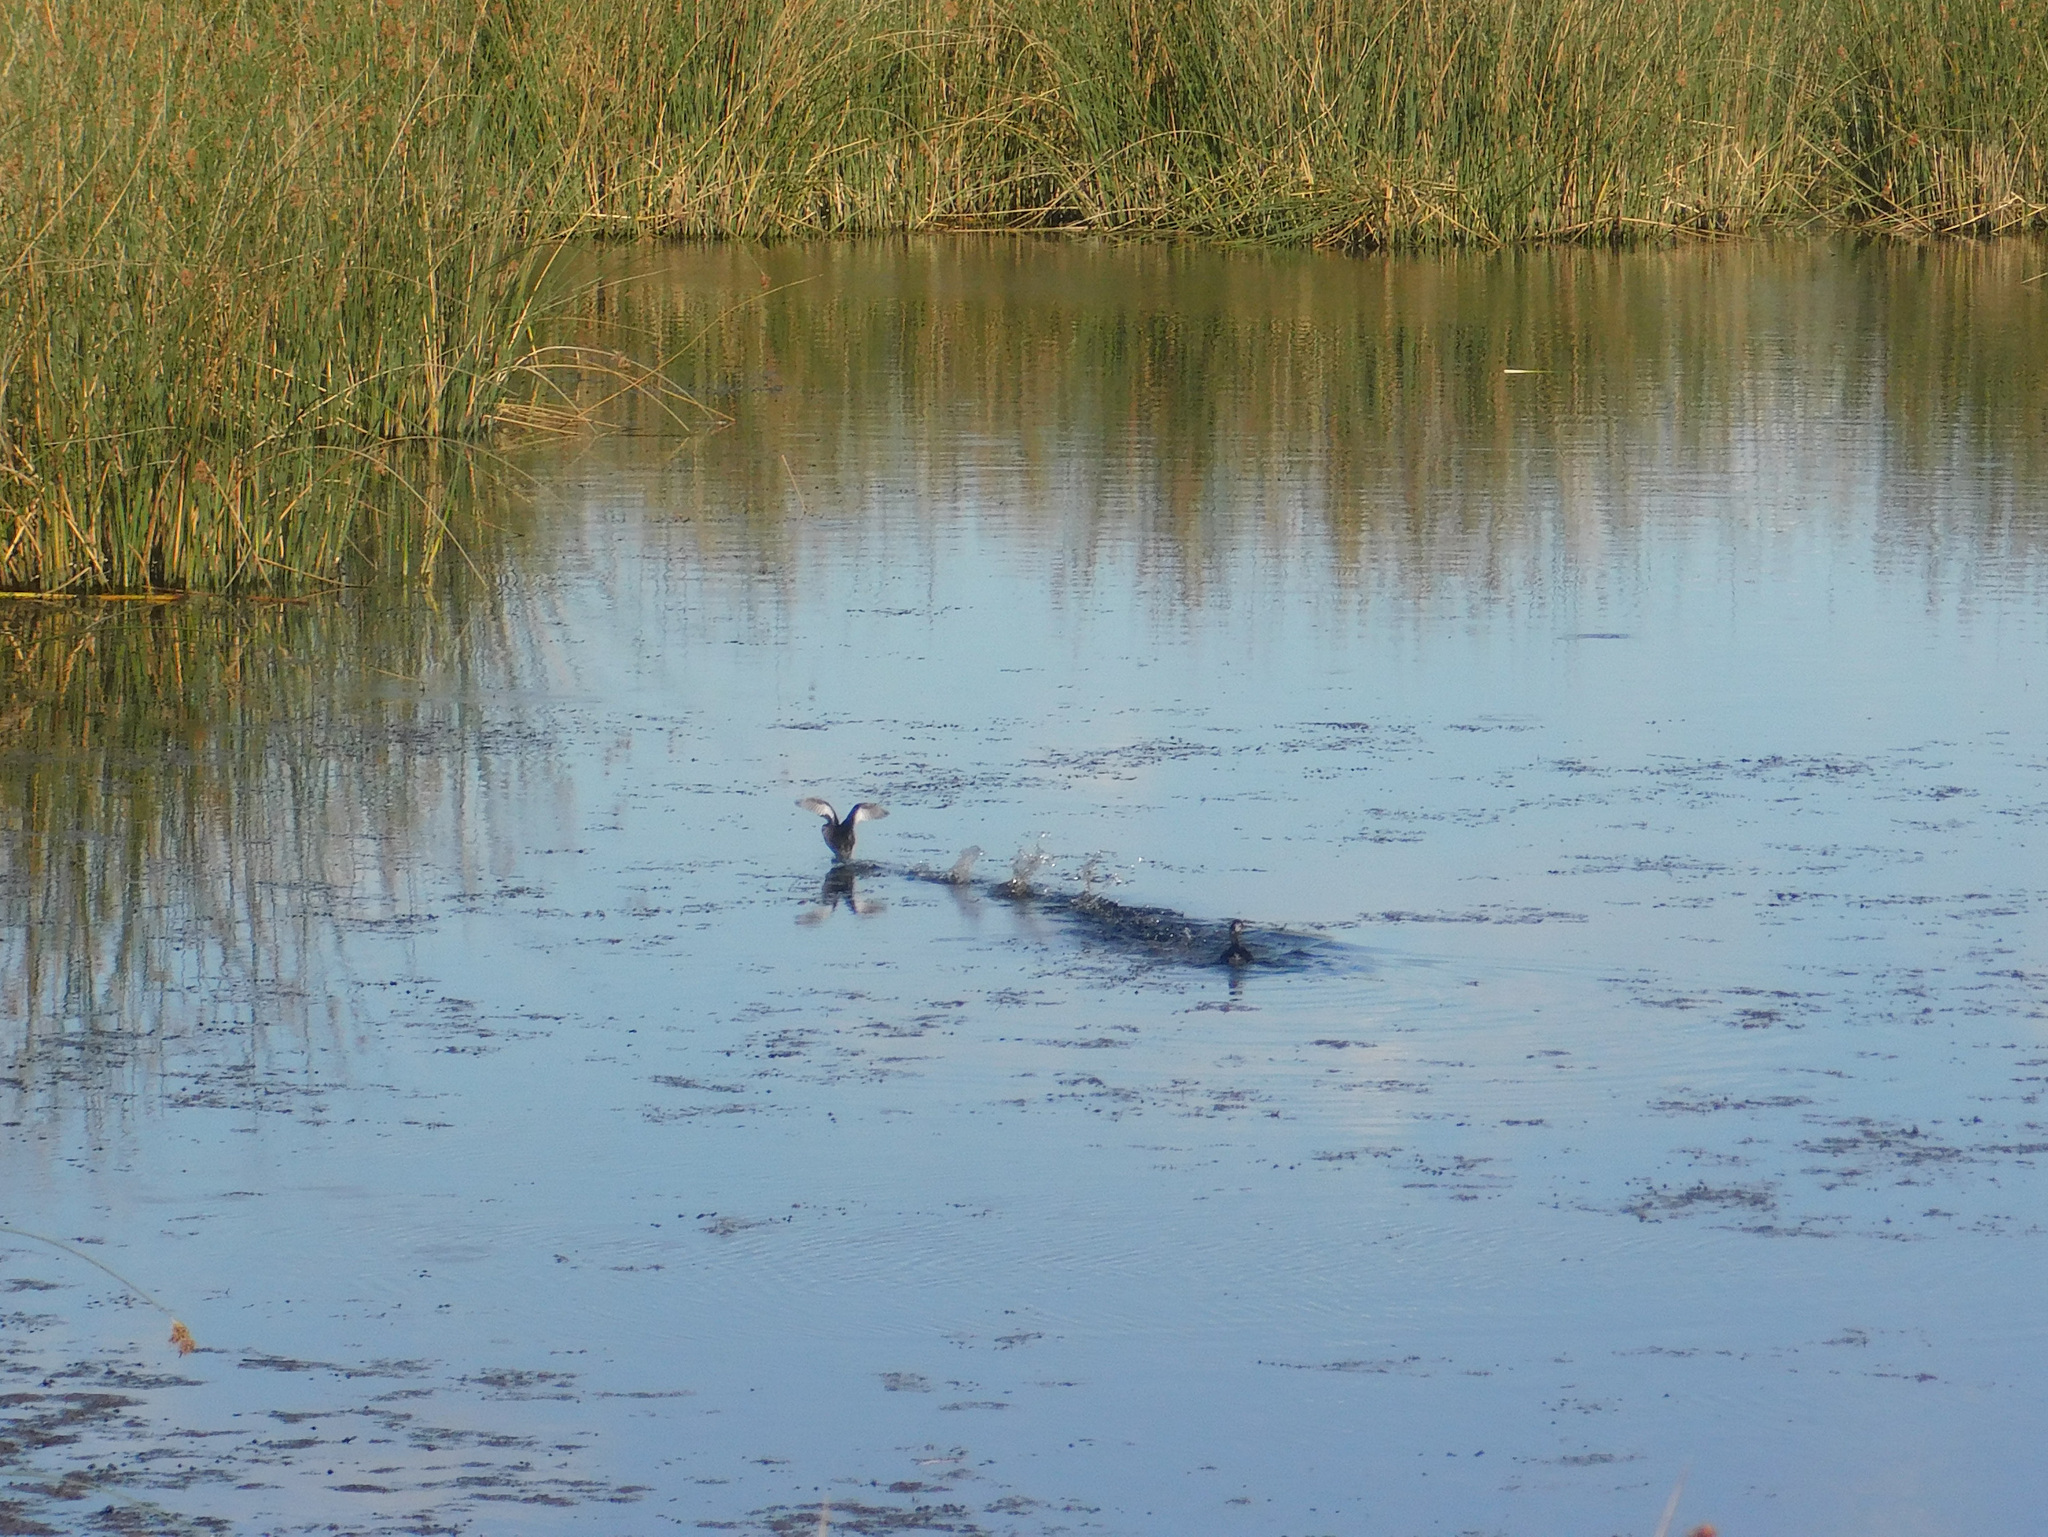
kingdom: Animalia
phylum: Chordata
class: Aves
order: Podicipediformes
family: Podicipedidae
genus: Rollandia
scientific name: Rollandia rolland
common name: White-tufted grebe
